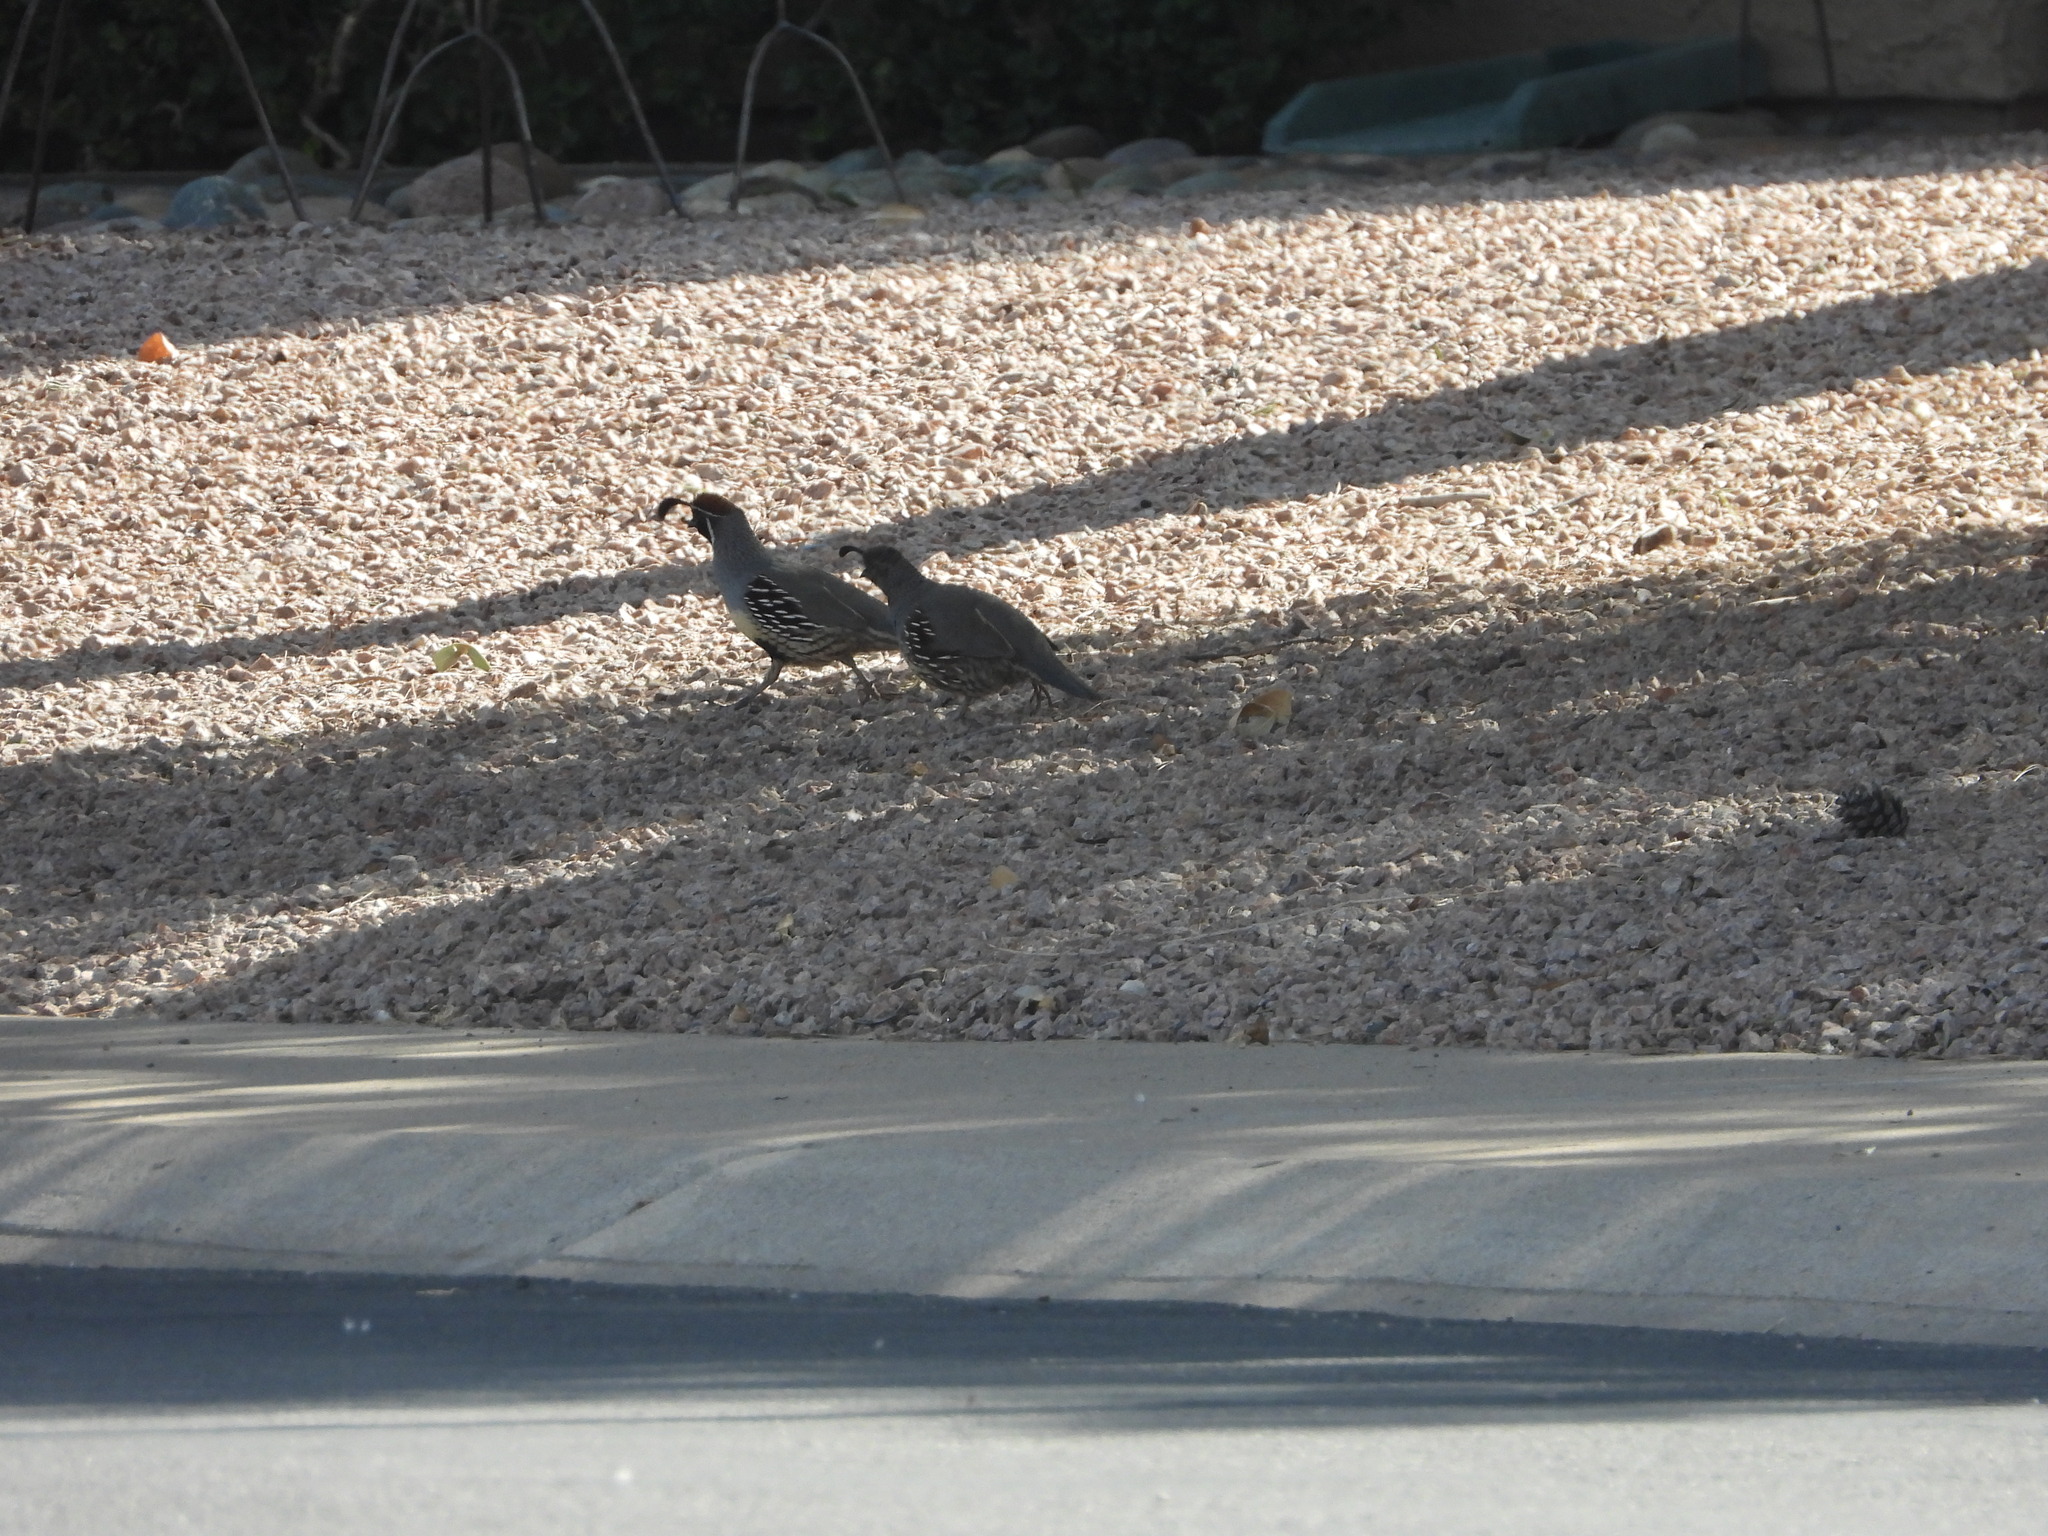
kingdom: Animalia
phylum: Chordata
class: Aves
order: Galliformes
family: Odontophoridae
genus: Callipepla
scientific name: Callipepla gambelii
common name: Gambel's quail
